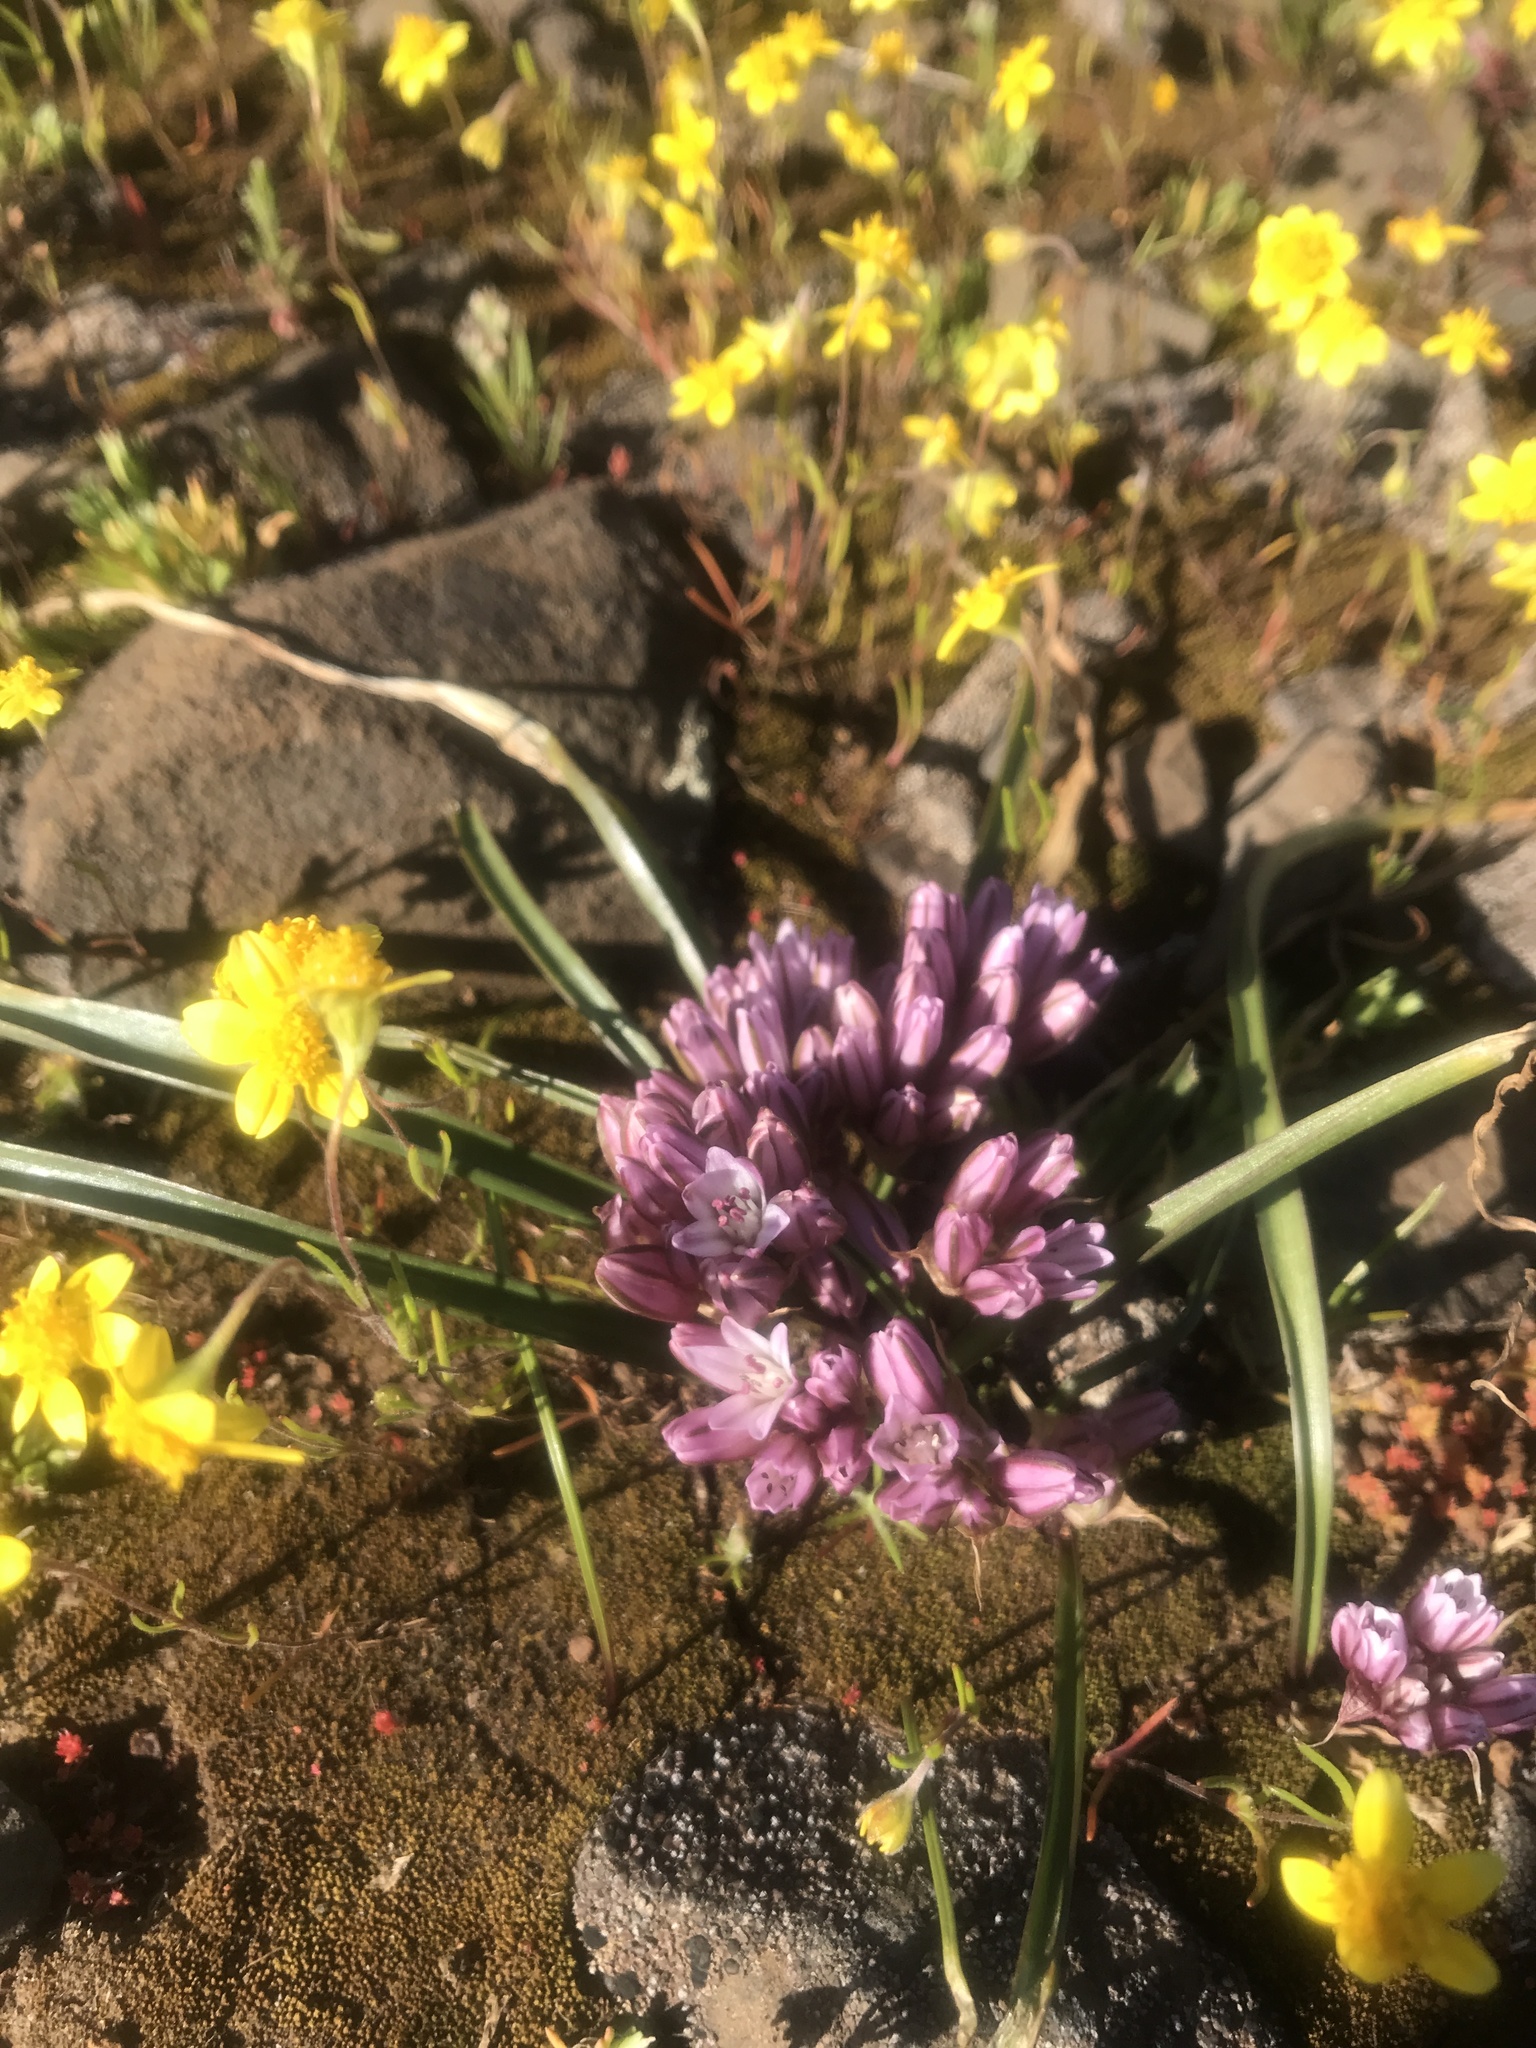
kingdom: Plantae
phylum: Tracheophyta
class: Liliopsida
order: Asparagales
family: Amaryllidaceae
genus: Allium
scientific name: Allium cratericola
